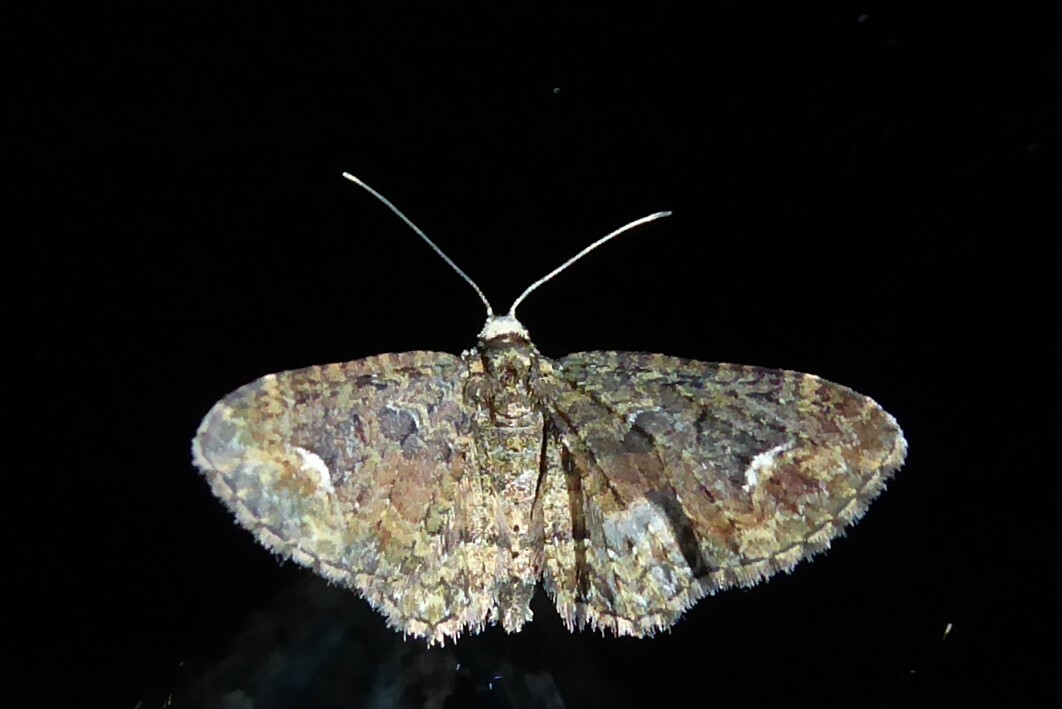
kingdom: Animalia
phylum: Arthropoda
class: Insecta
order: Lepidoptera
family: Geometridae
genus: Pasiphilodes
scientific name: Pasiphilodes testulata
